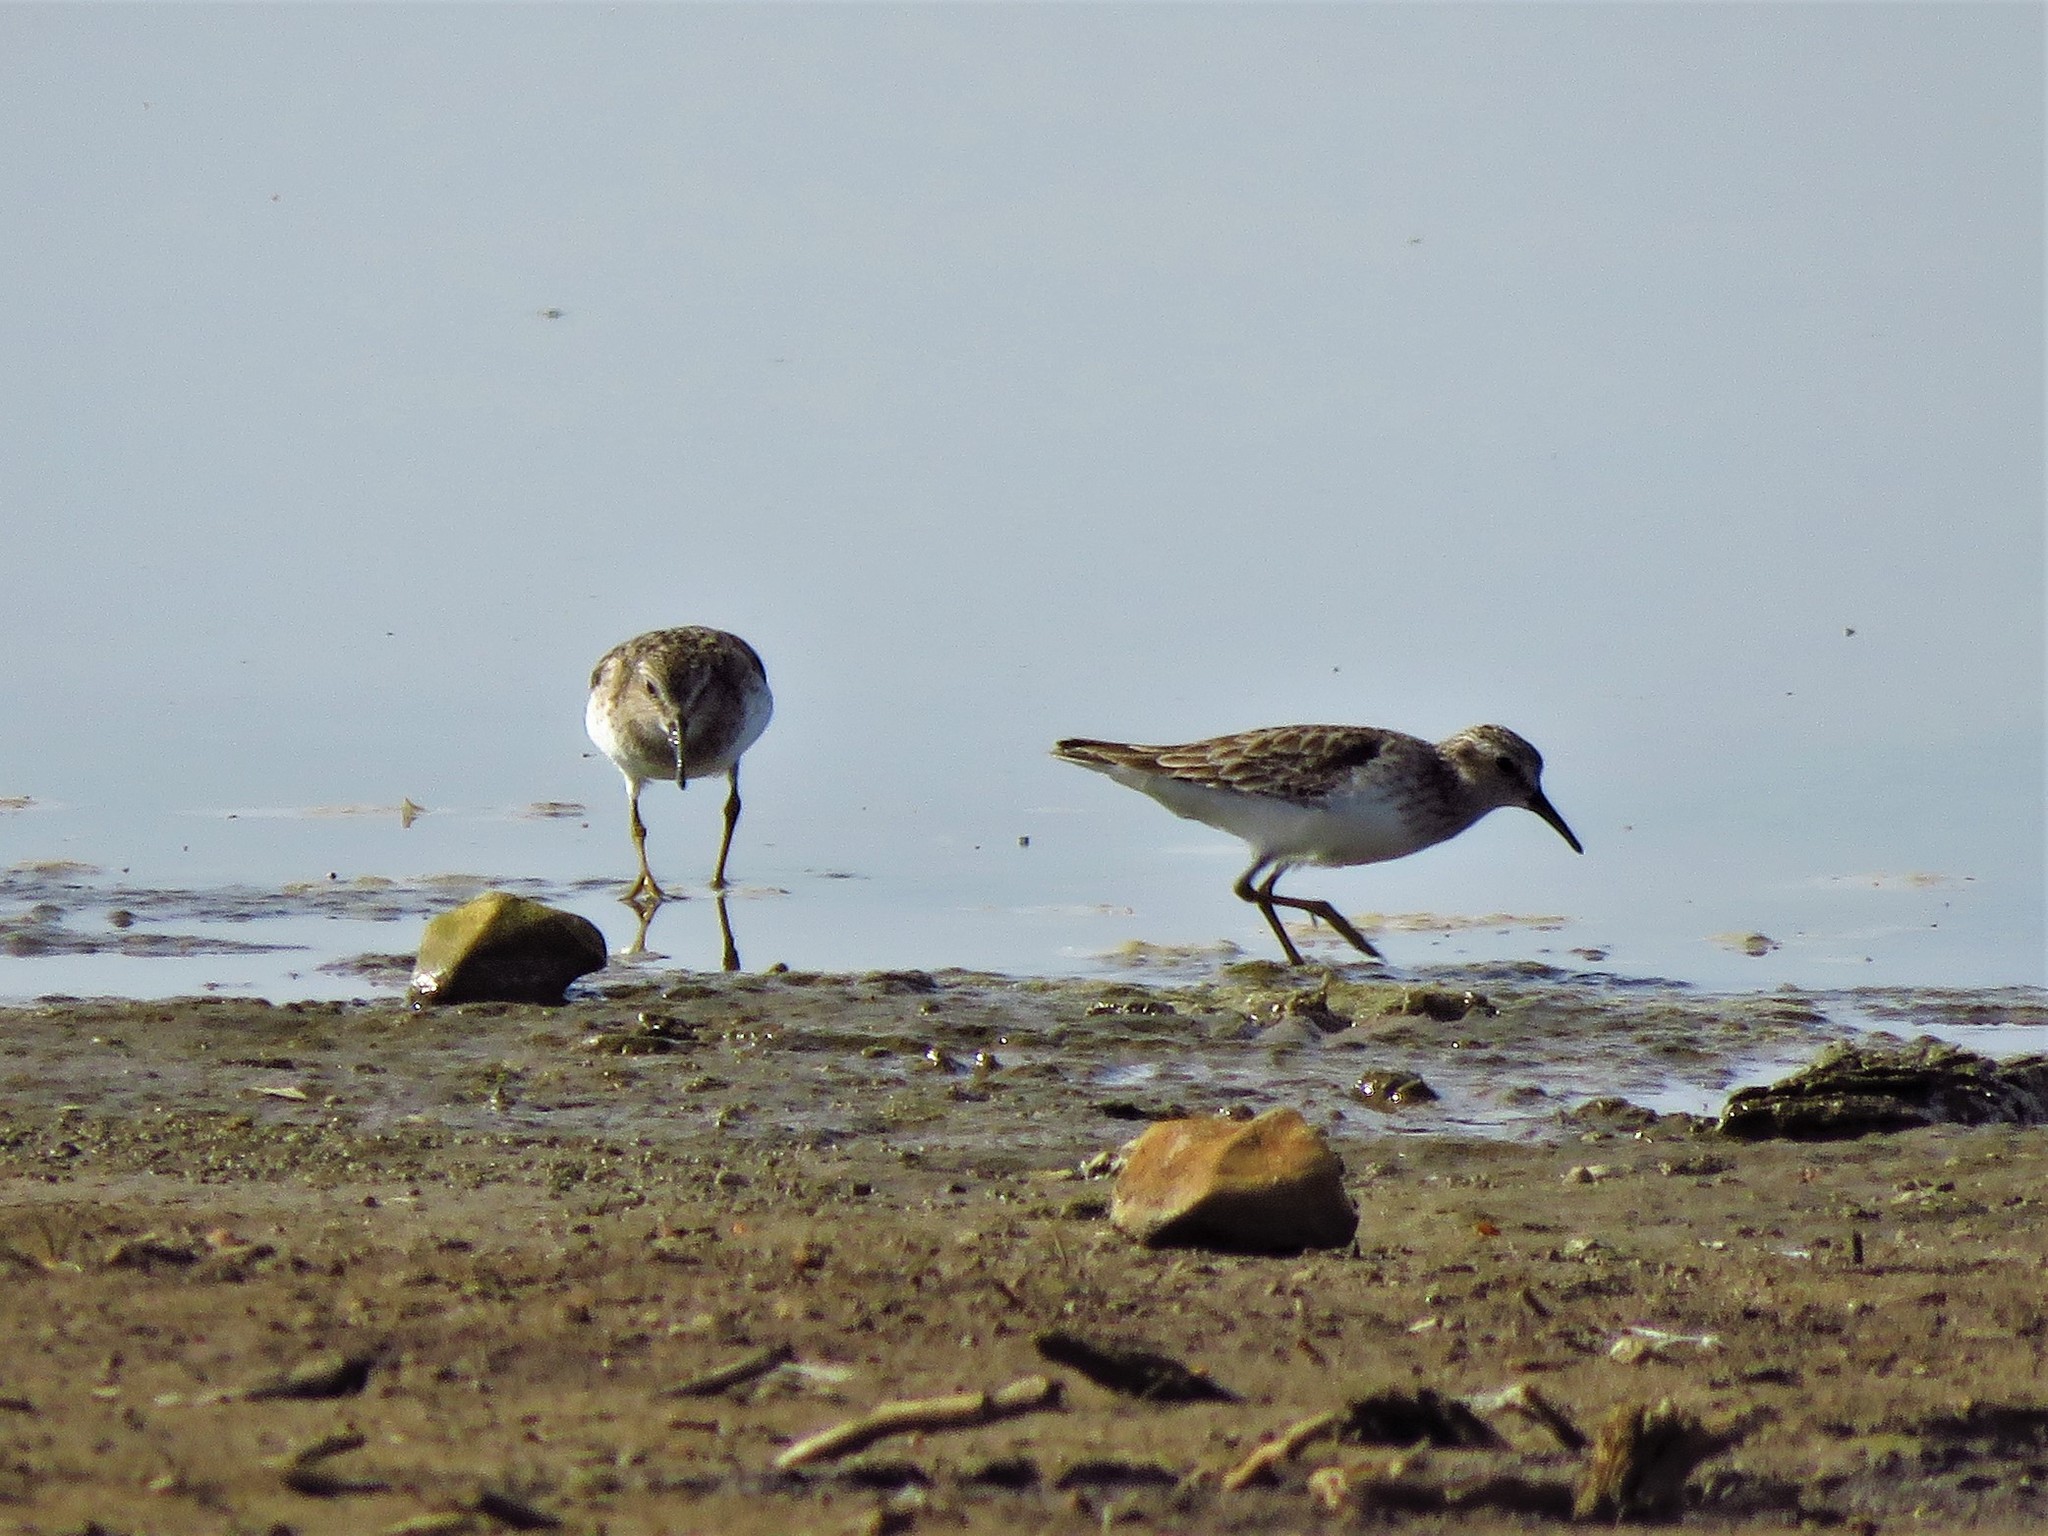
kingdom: Animalia
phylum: Chordata
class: Aves
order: Charadriiformes
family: Scolopacidae
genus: Calidris
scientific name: Calidris minutilla
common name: Least sandpiper
